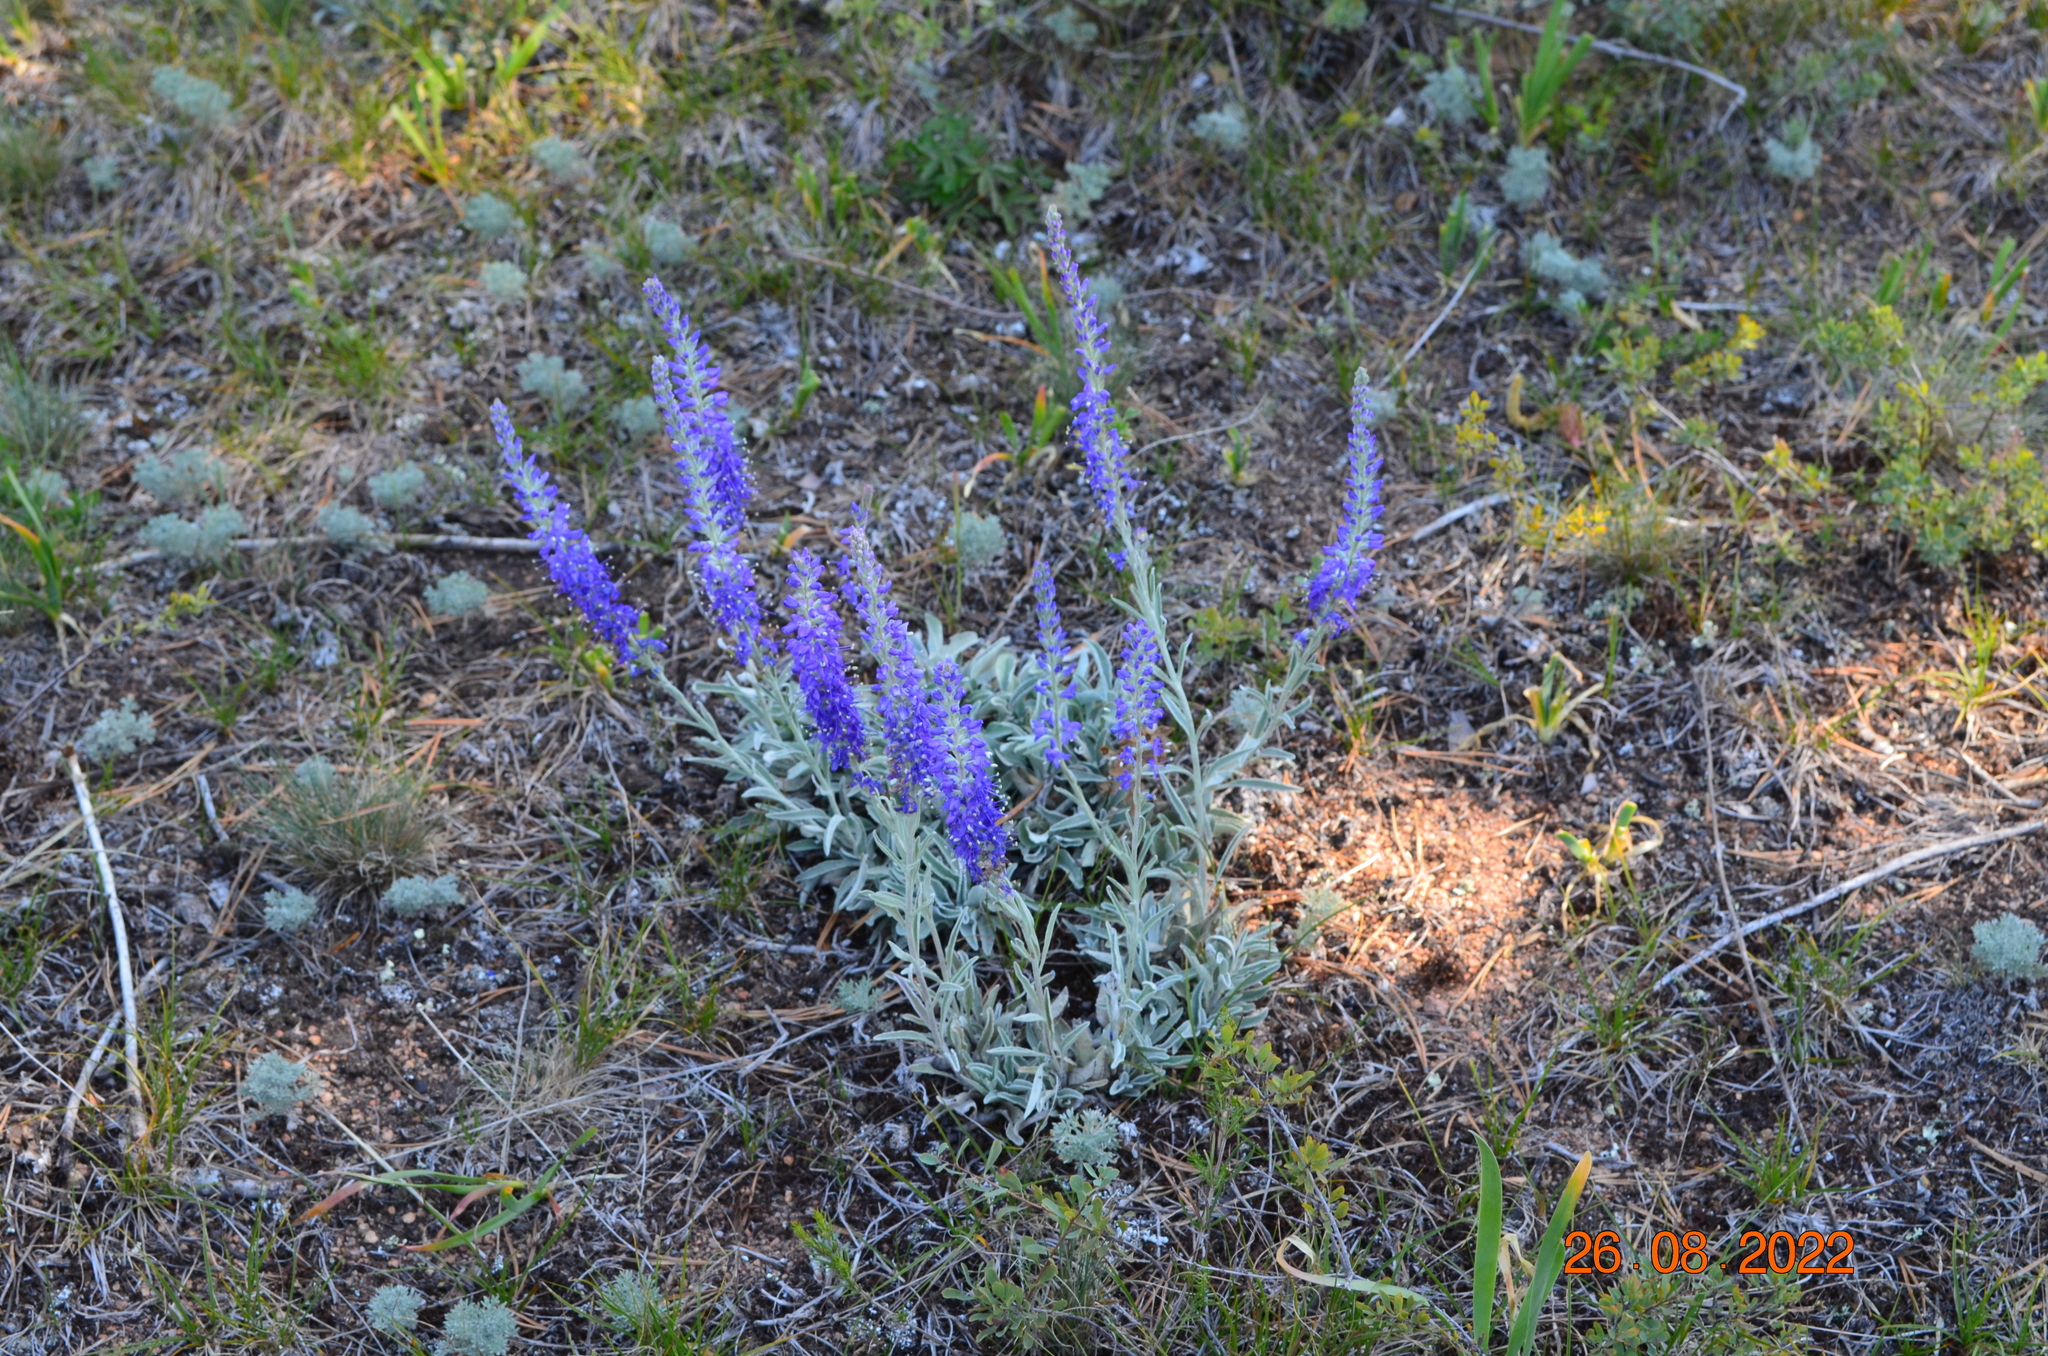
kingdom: Plantae
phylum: Tracheophyta
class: Magnoliopsida
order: Lamiales
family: Plantaginaceae
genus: Veronica
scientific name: Veronica incana
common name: Silver speedwell
